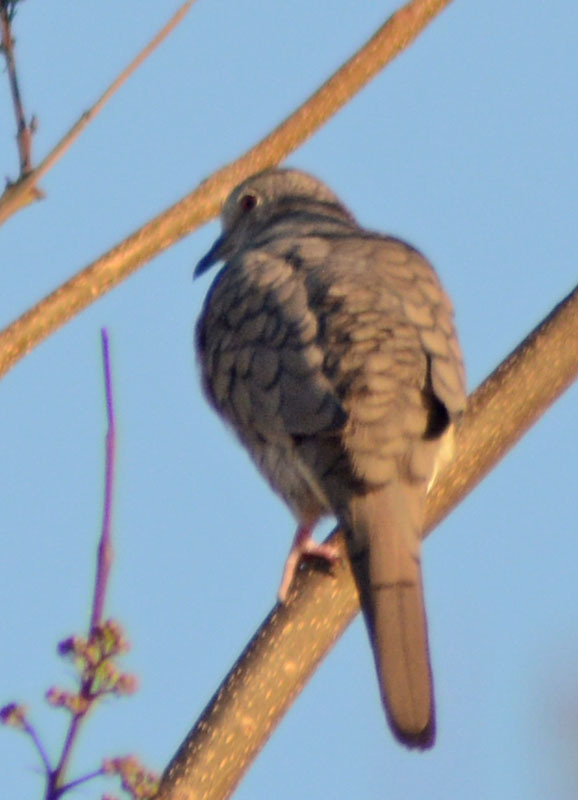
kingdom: Animalia
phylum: Chordata
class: Aves
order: Columbiformes
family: Columbidae
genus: Columbina
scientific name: Columbina inca
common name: Inca dove
